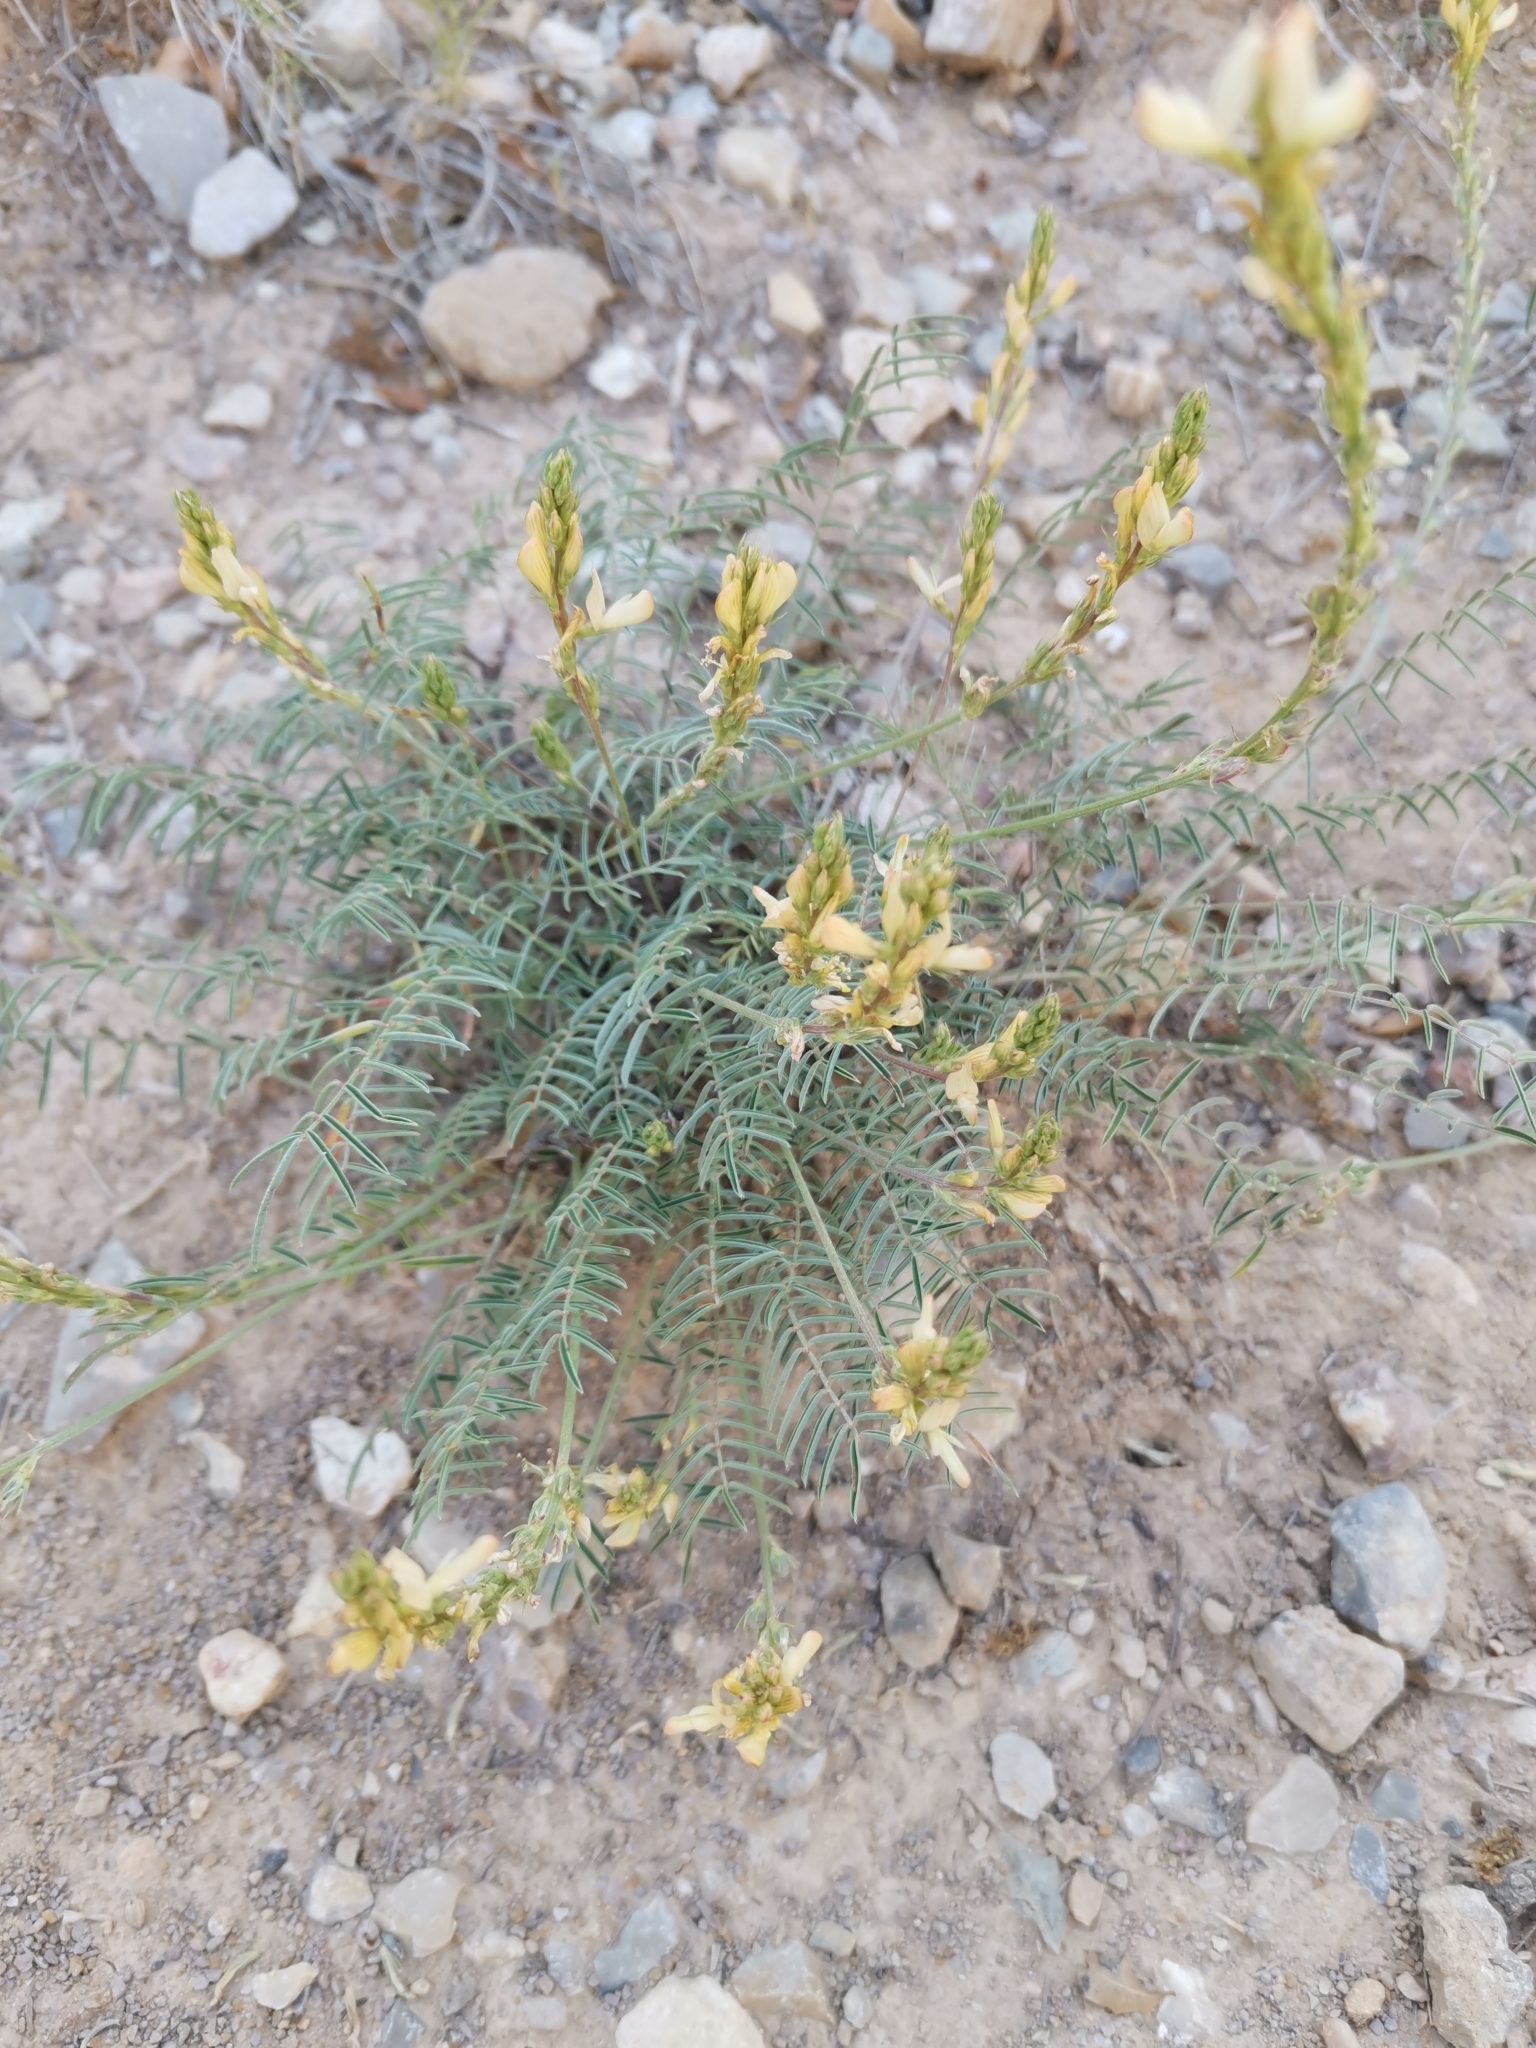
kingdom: Plantae
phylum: Tracheophyta
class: Magnoliopsida
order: Fabales
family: Fabaceae
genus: Onobrychis
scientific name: Onobrychis saxatilis
